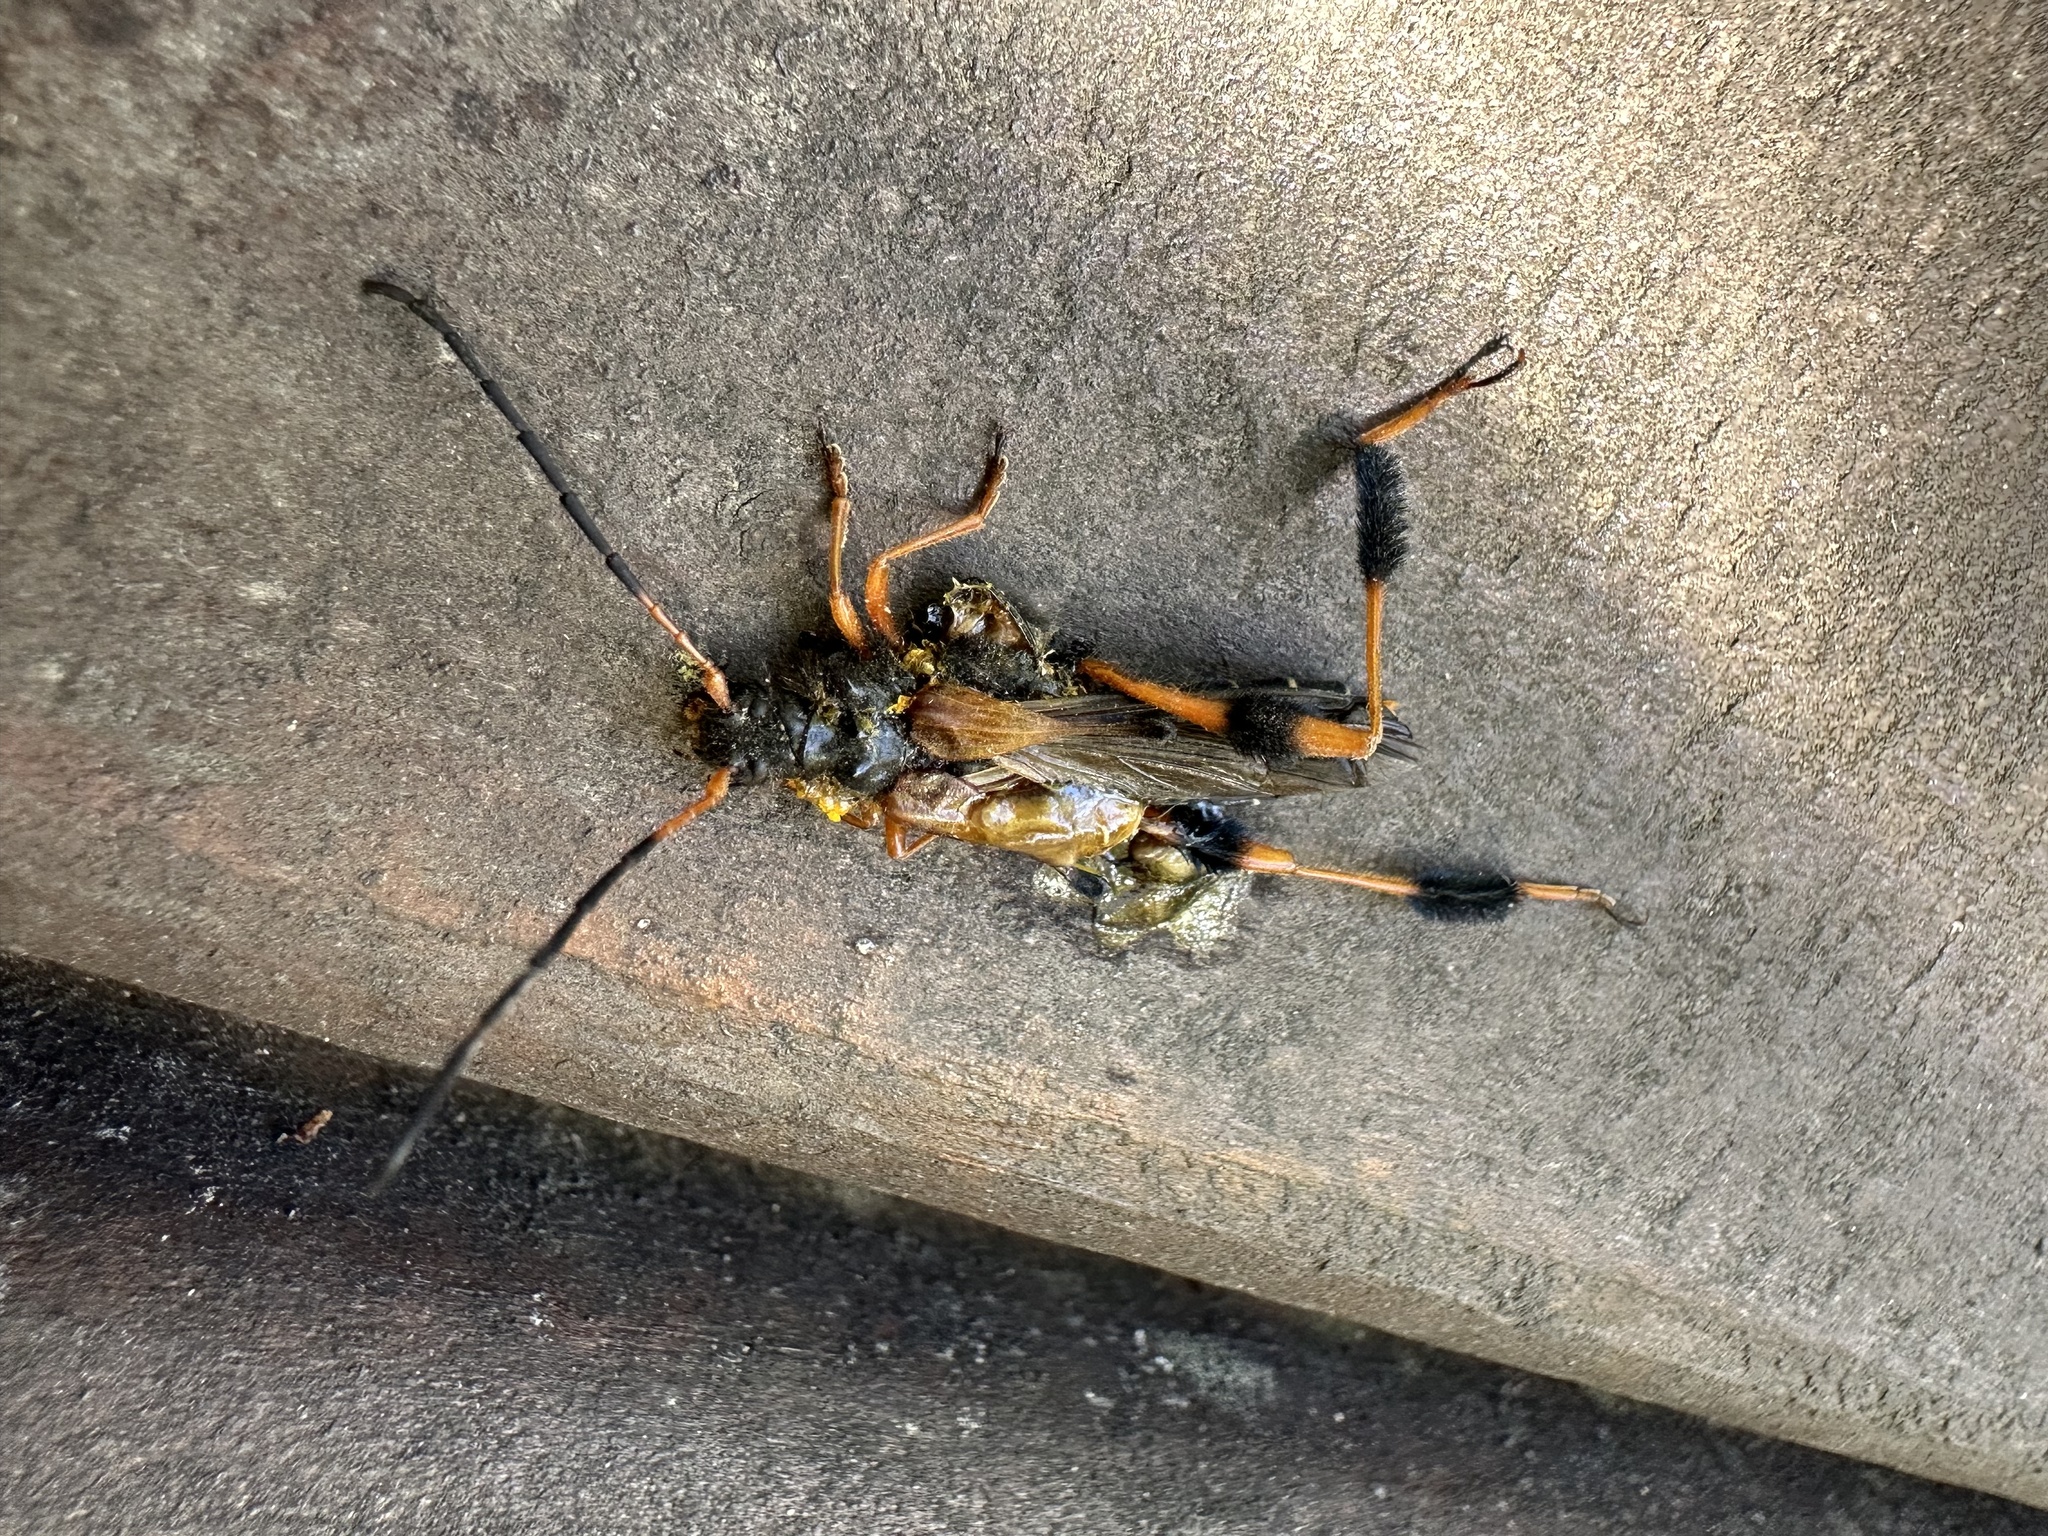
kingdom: Animalia
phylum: Arthropoda
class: Insecta
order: Coleoptera
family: Cerambycidae
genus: Callisphyris
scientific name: Callisphyris leptopus
